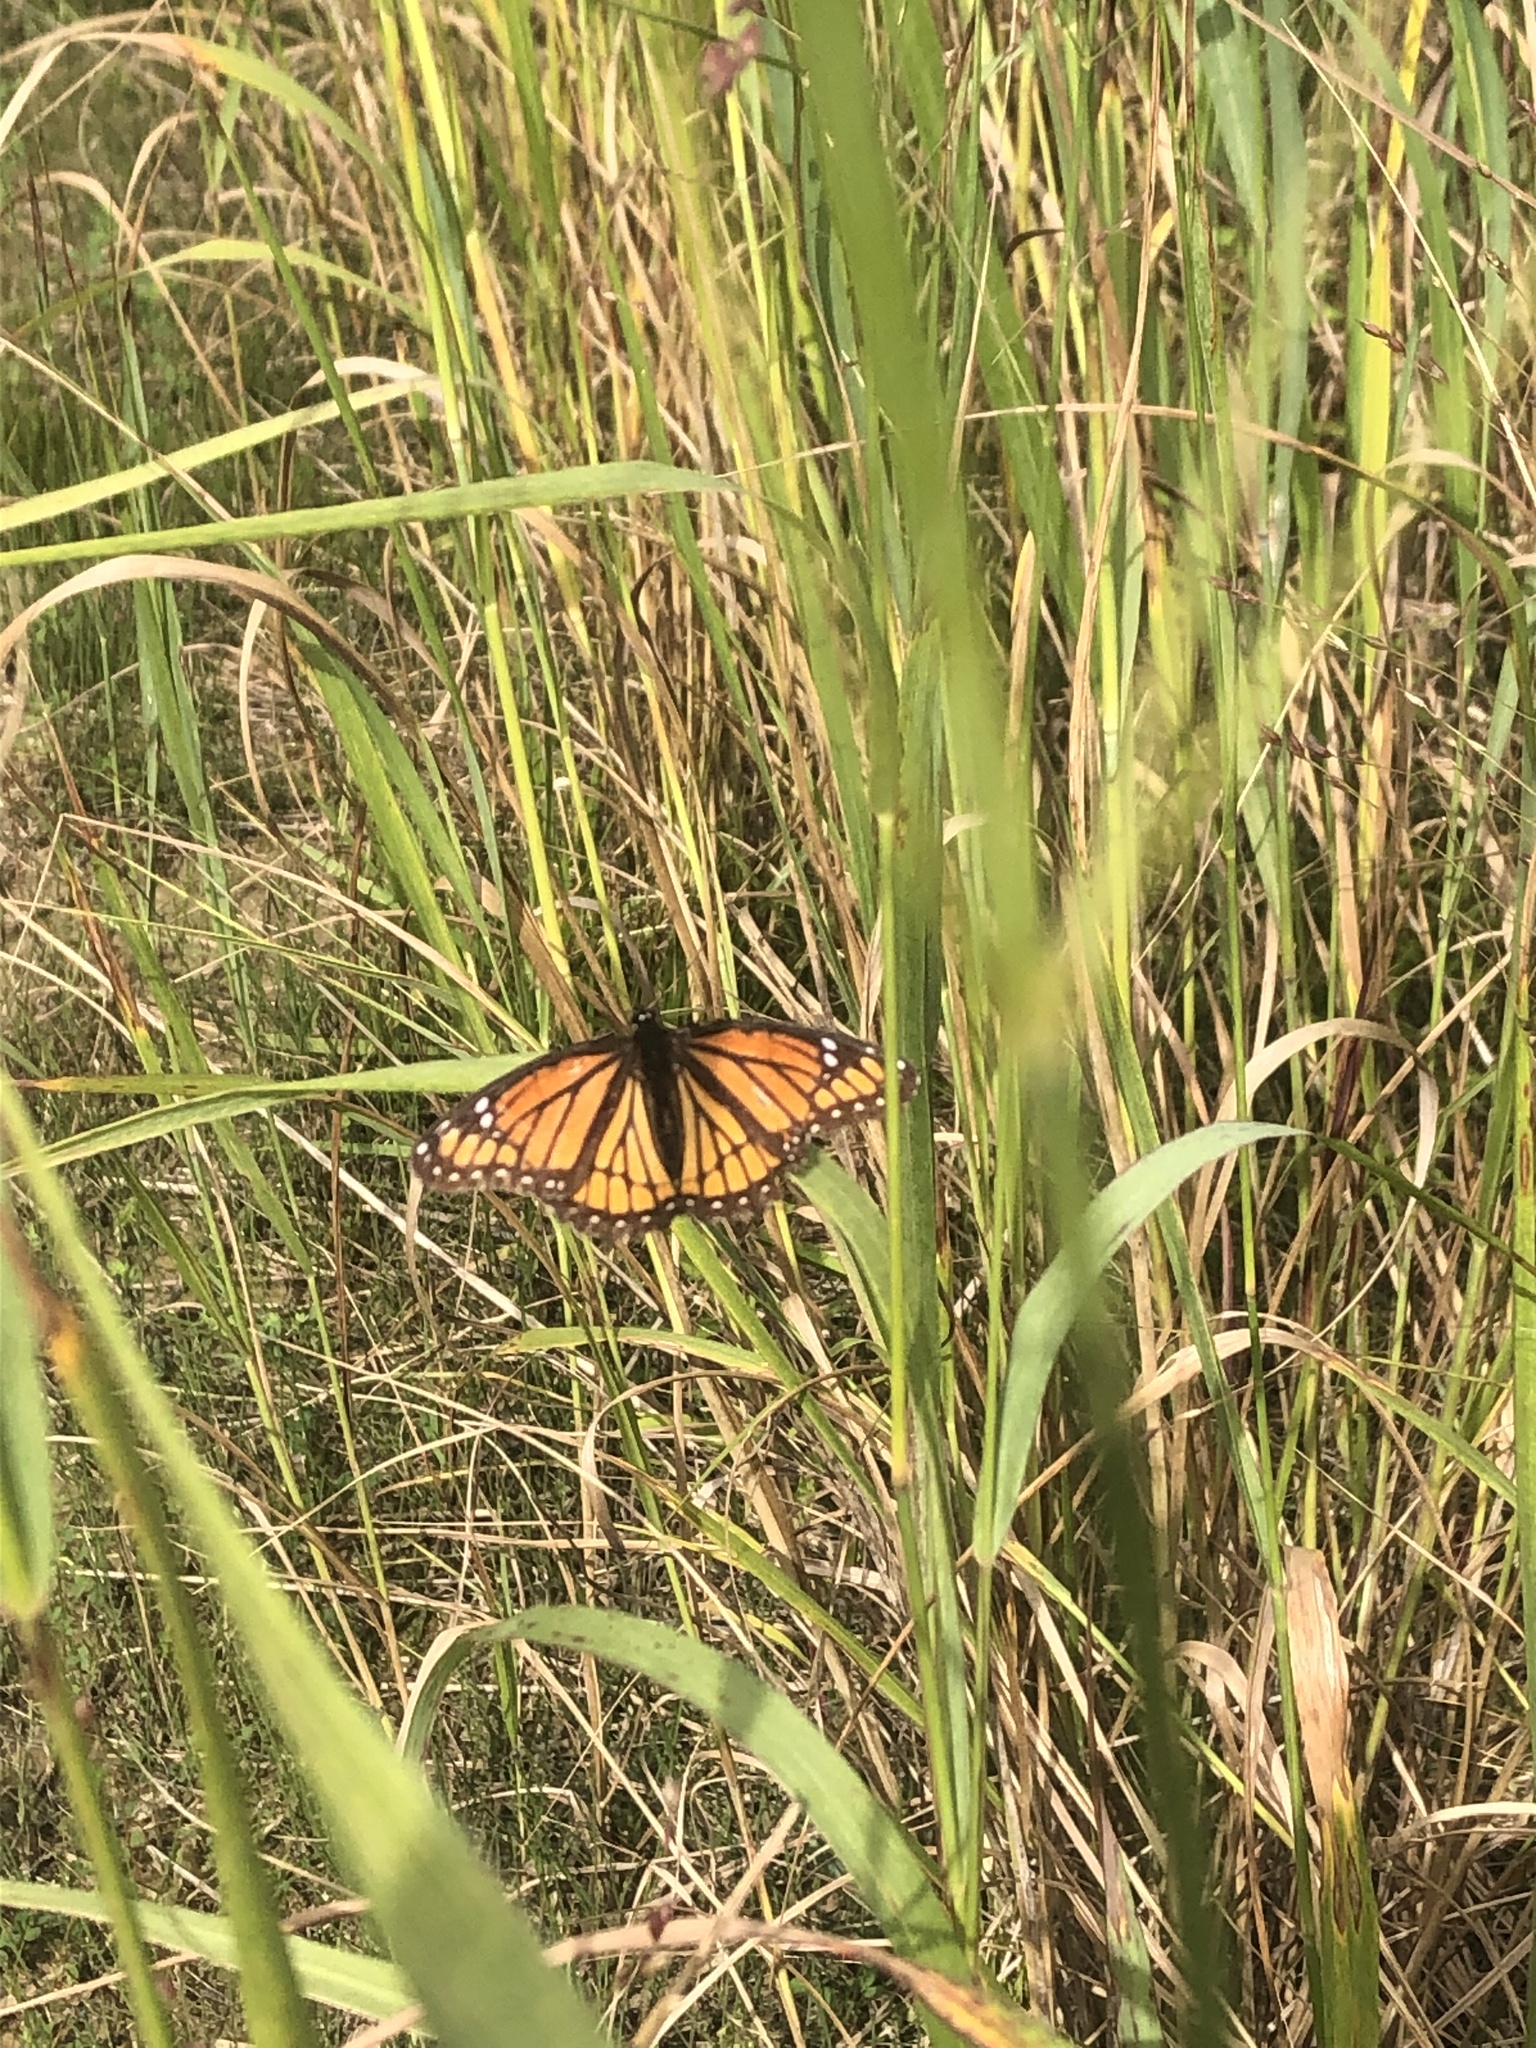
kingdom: Animalia
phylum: Arthropoda
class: Insecta
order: Lepidoptera
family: Nymphalidae
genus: Limenitis
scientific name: Limenitis archippus
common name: Viceroy
